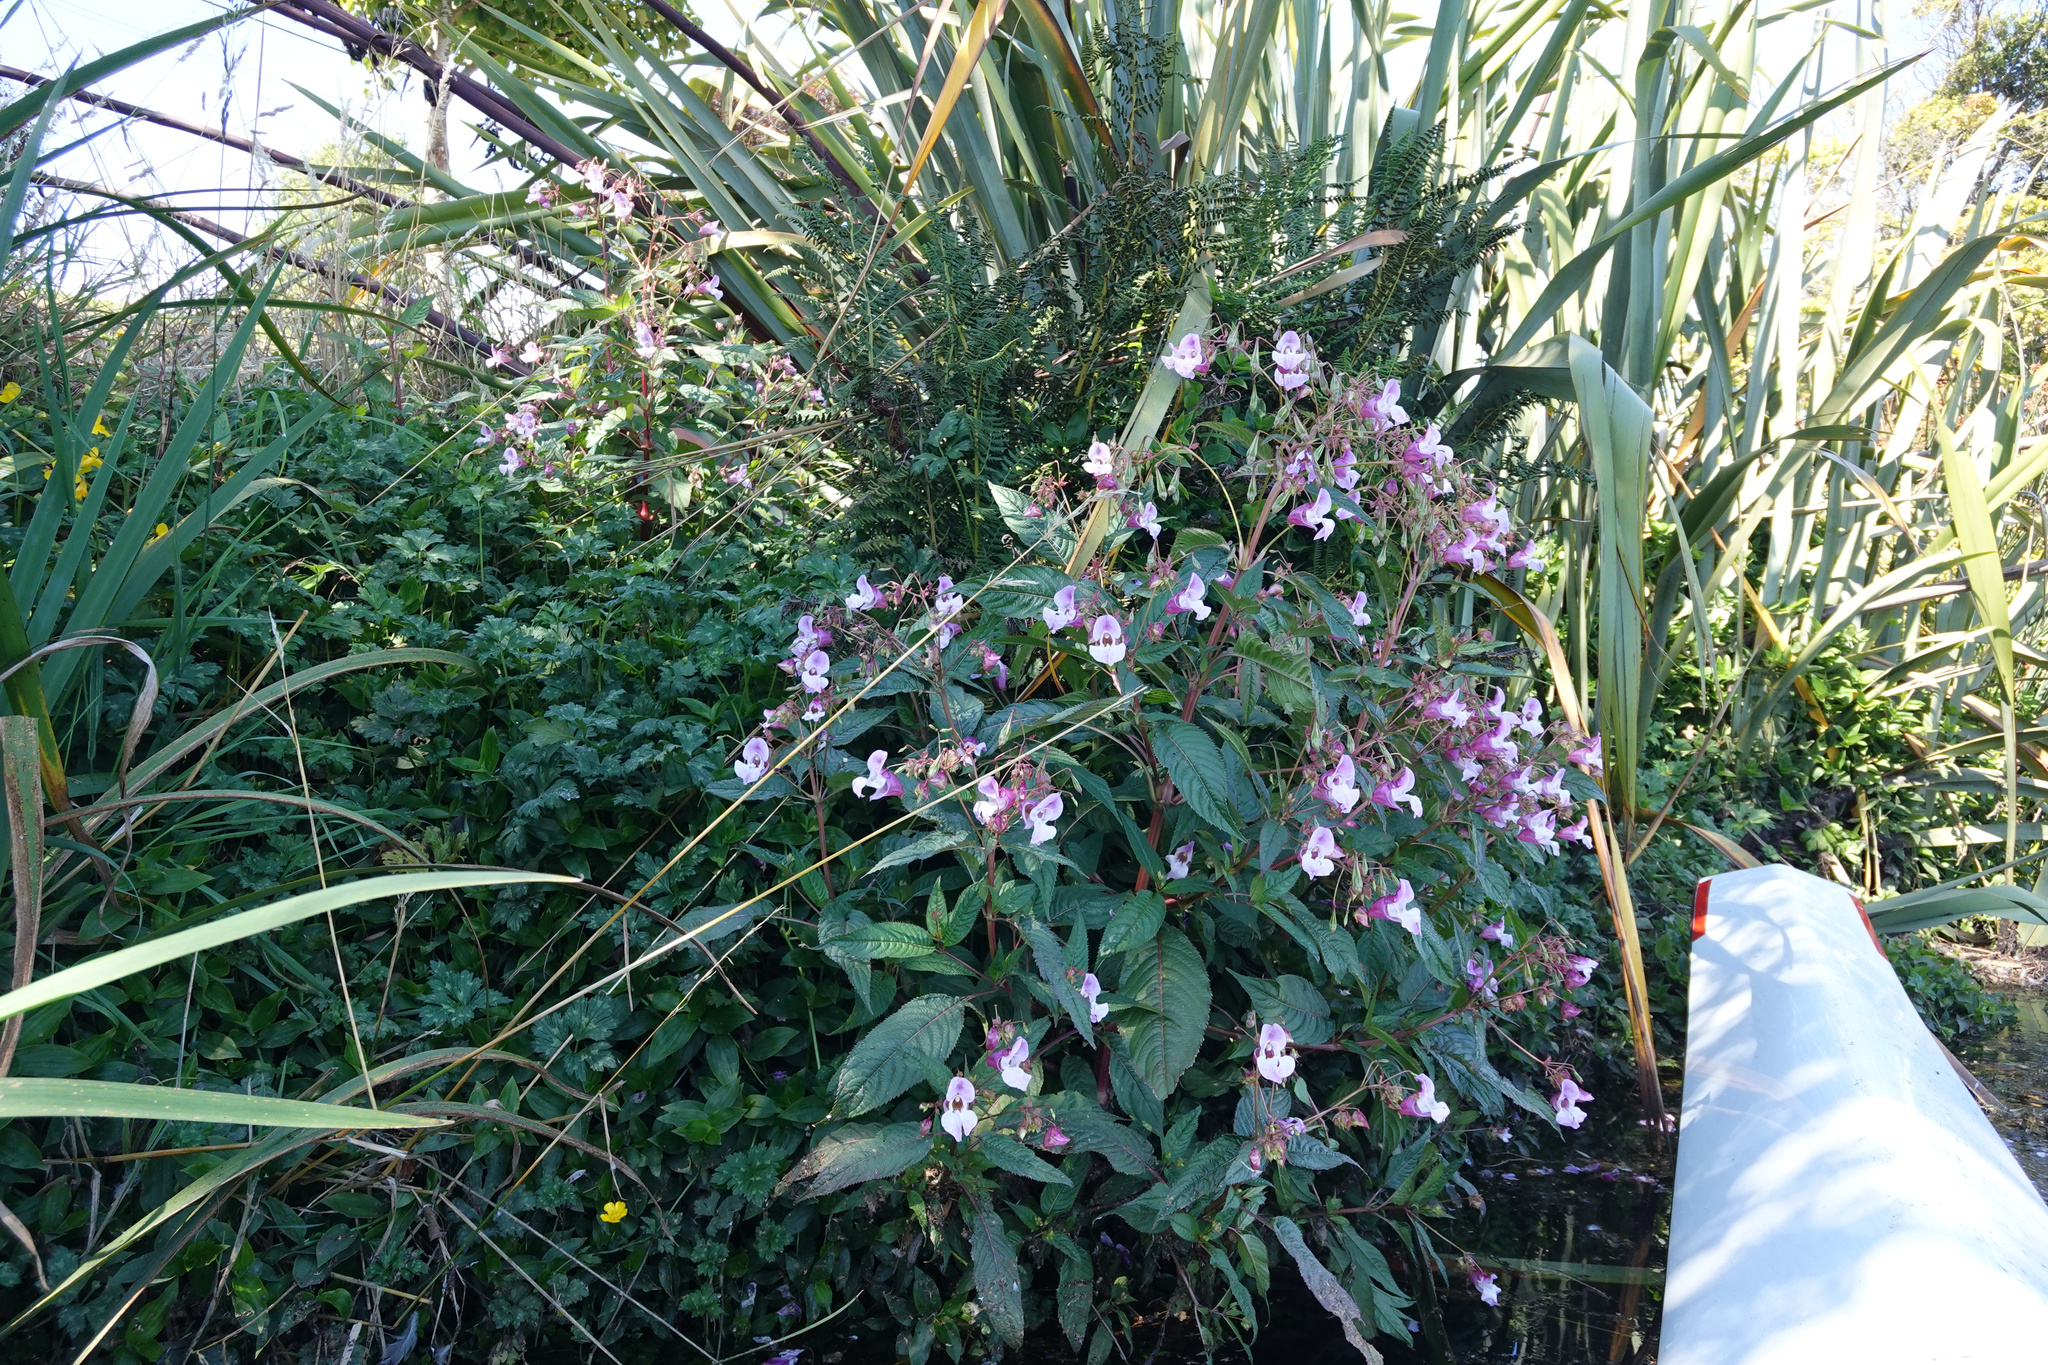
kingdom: Plantae
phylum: Tracheophyta
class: Magnoliopsida
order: Ericales
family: Balsaminaceae
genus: Impatiens
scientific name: Impatiens glandulifera
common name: Himalayan balsam
